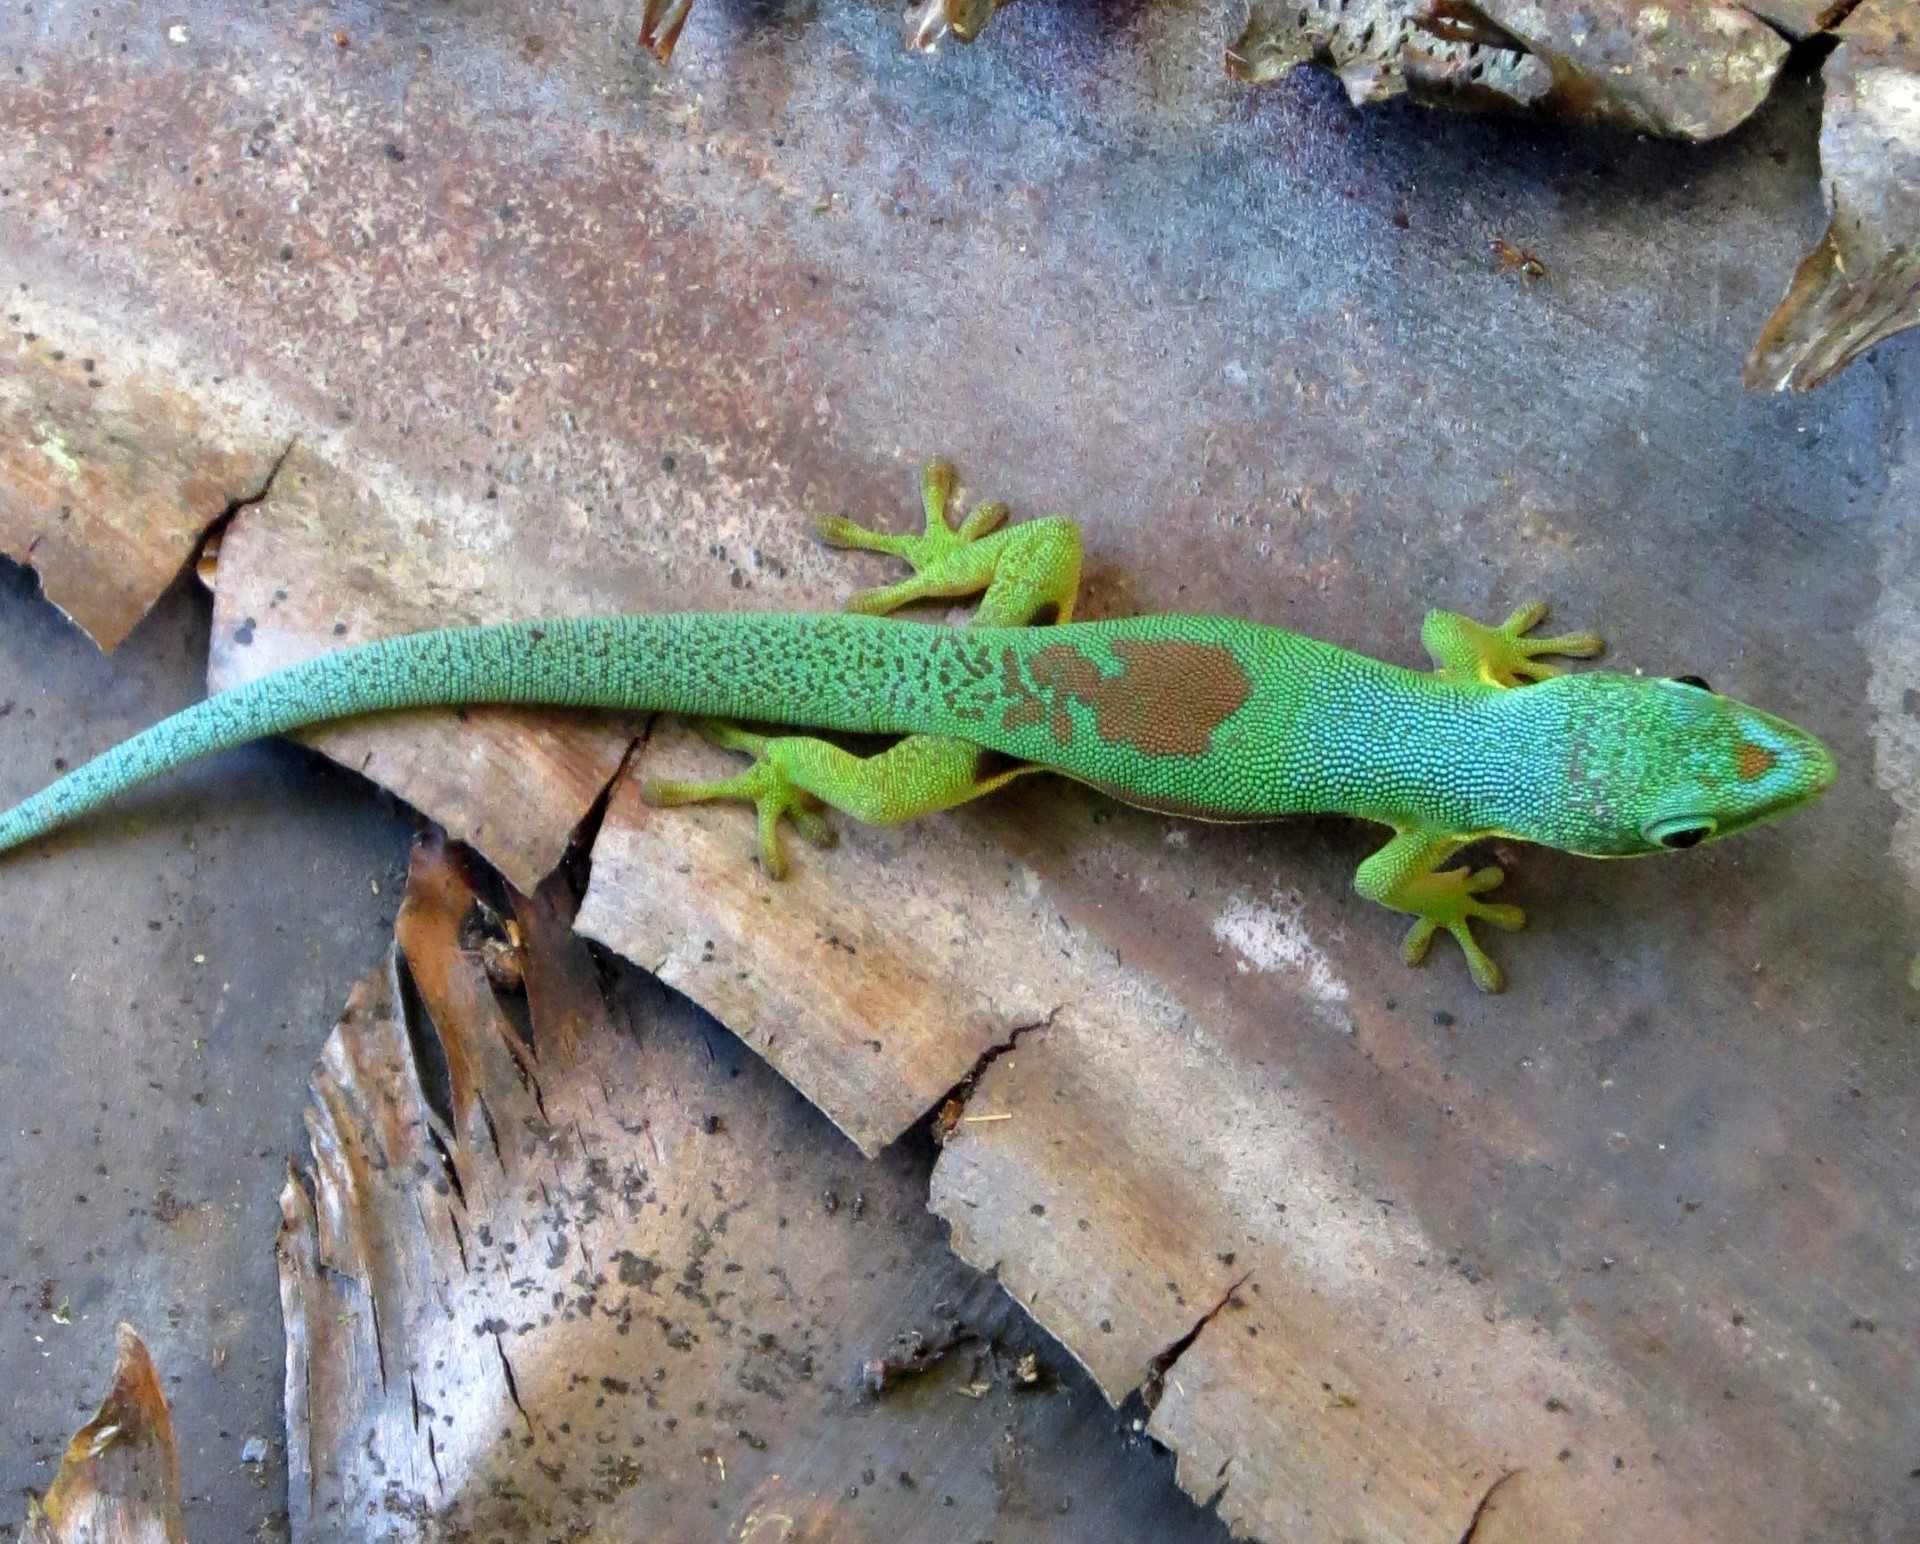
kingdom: Animalia
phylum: Chordata
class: Squamata
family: Gekkonidae
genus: Phelsuma
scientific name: Phelsuma lineata
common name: Lined day gecko
